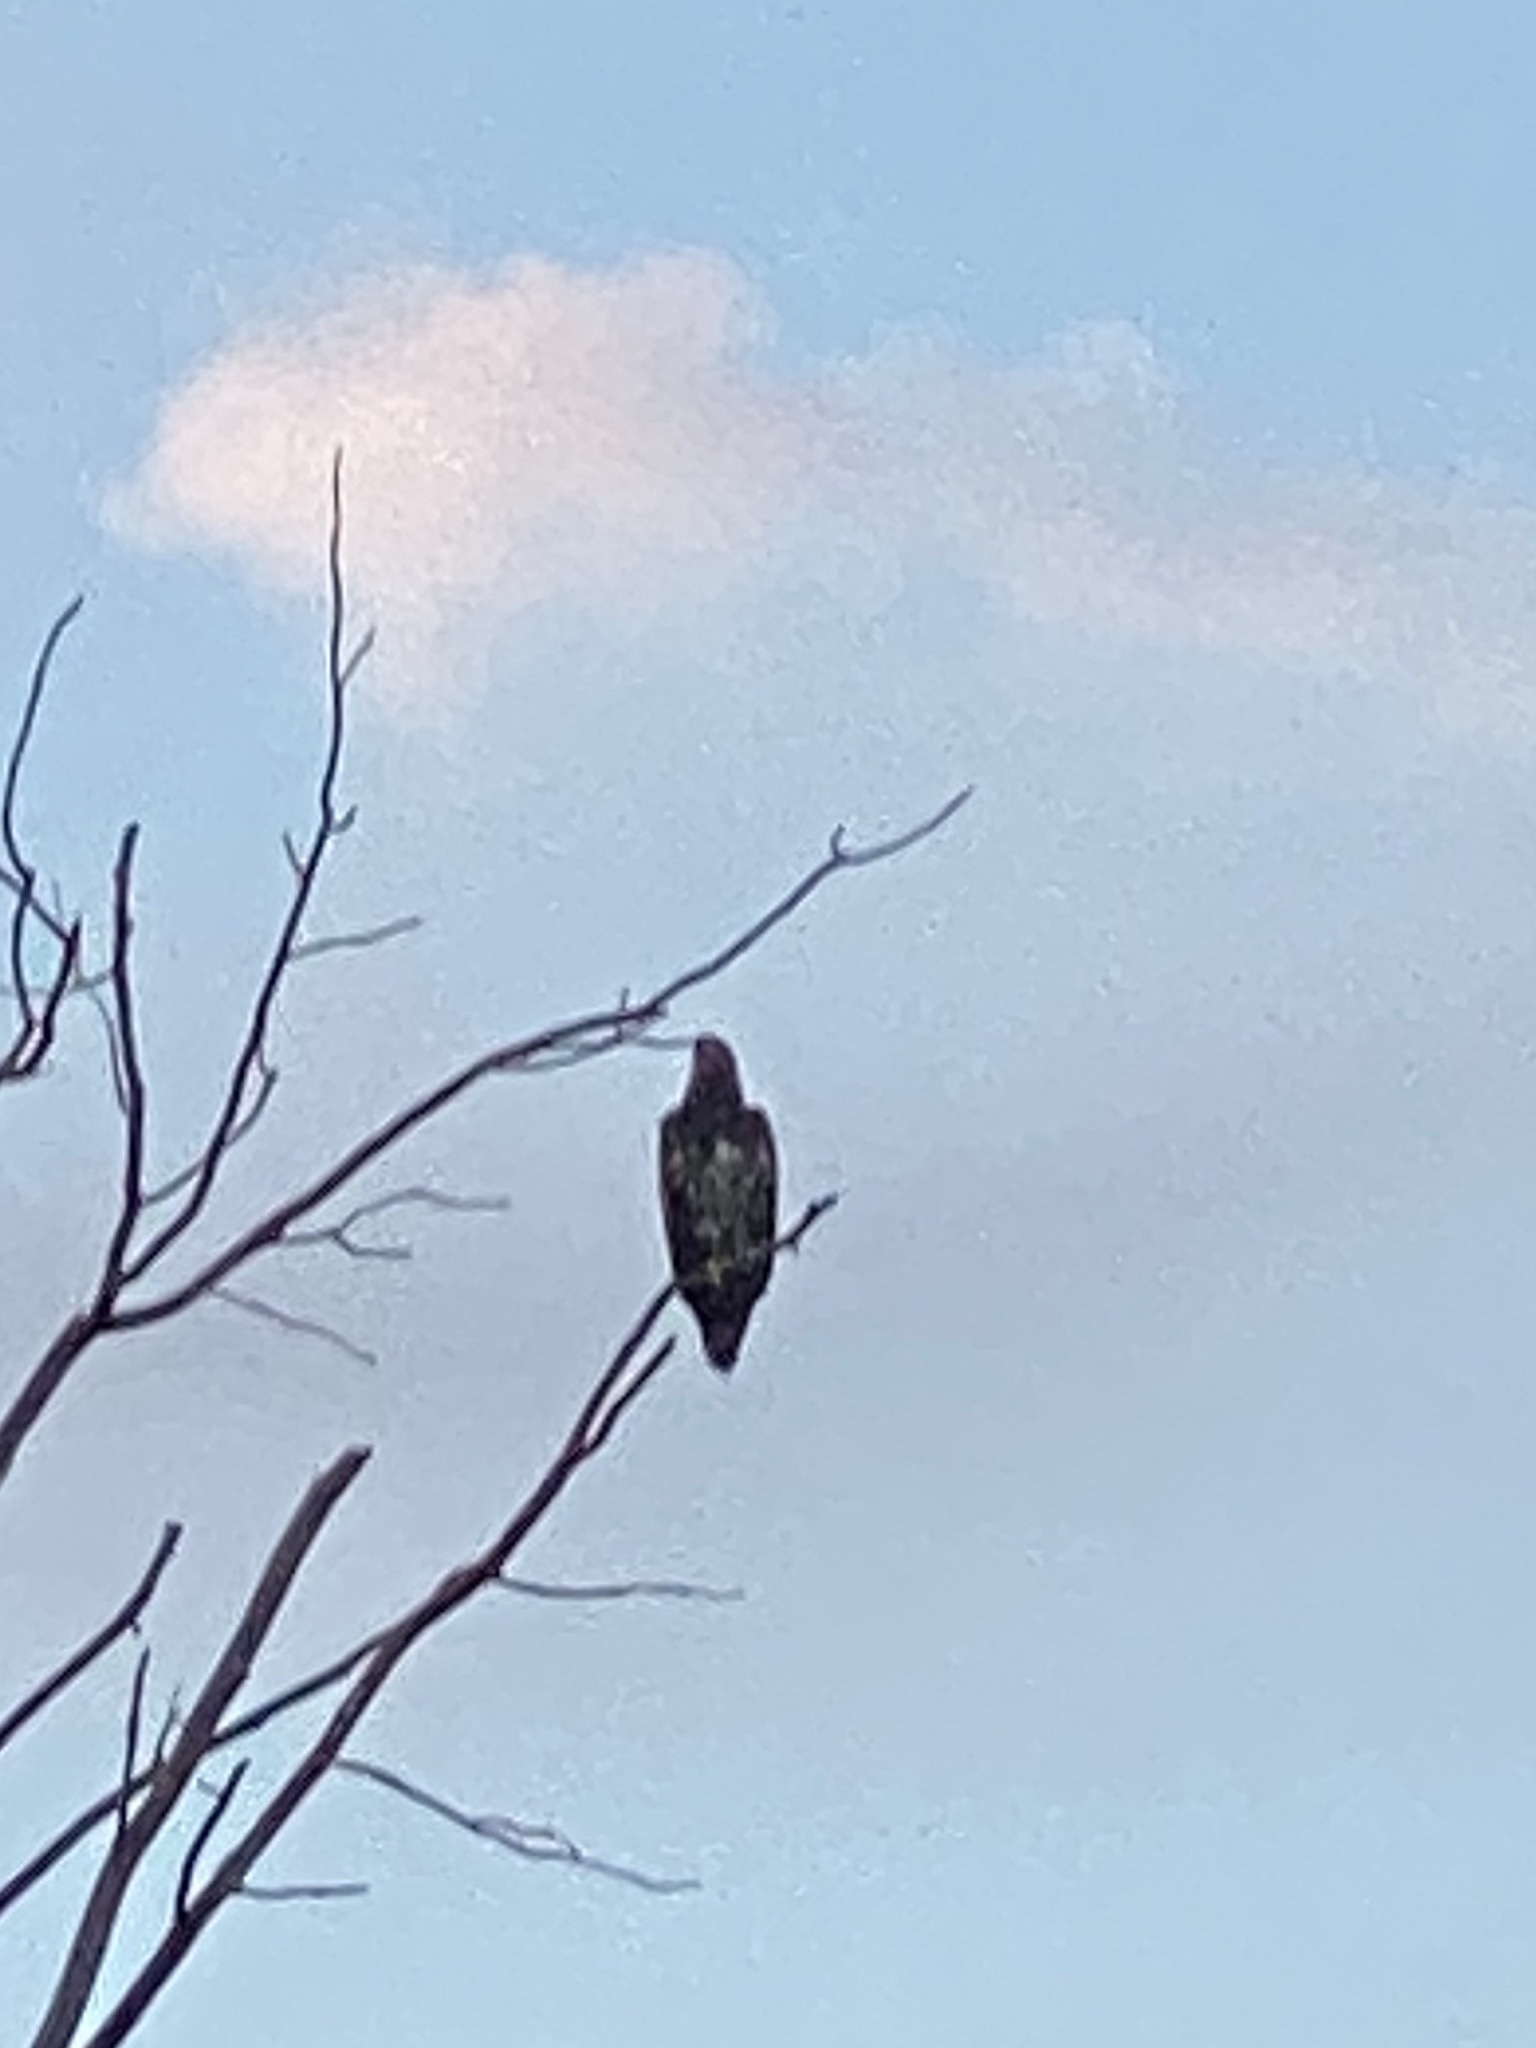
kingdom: Animalia
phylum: Chordata
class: Aves
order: Accipitriformes
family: Accipitridae
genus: Haliaeetus
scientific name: Haliaeetus leucocephalus
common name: Bald eagle
